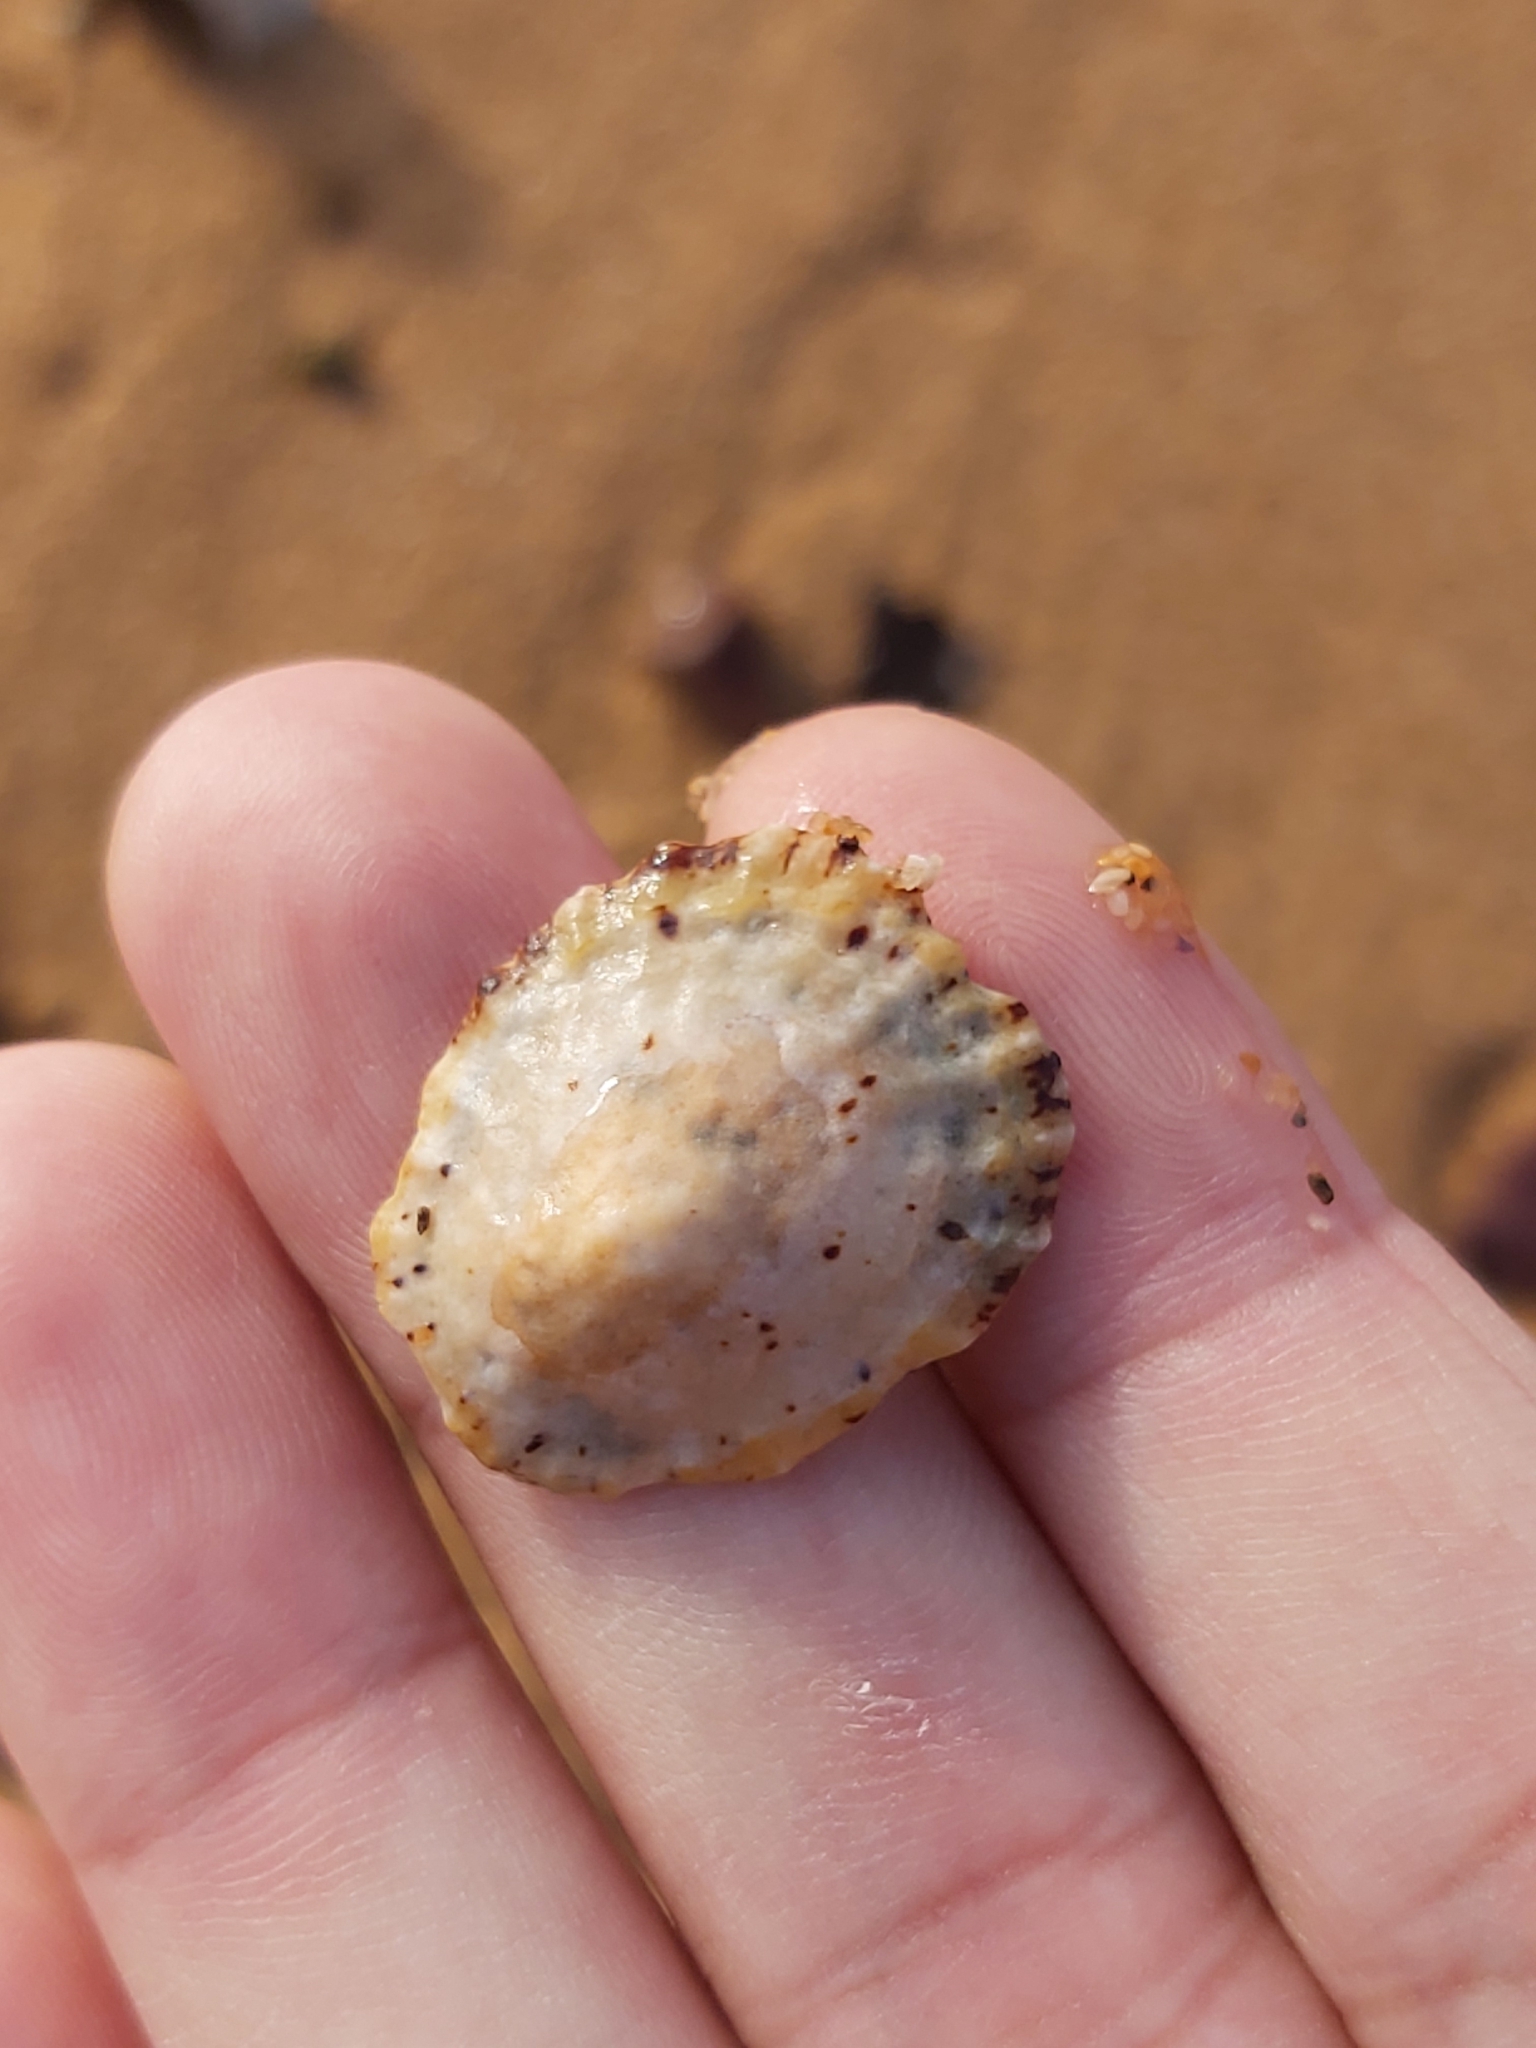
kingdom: Animalia
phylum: Mollusca
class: Gastropoda
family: Nacellidae
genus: Cellana
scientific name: Cellana tramoserica
